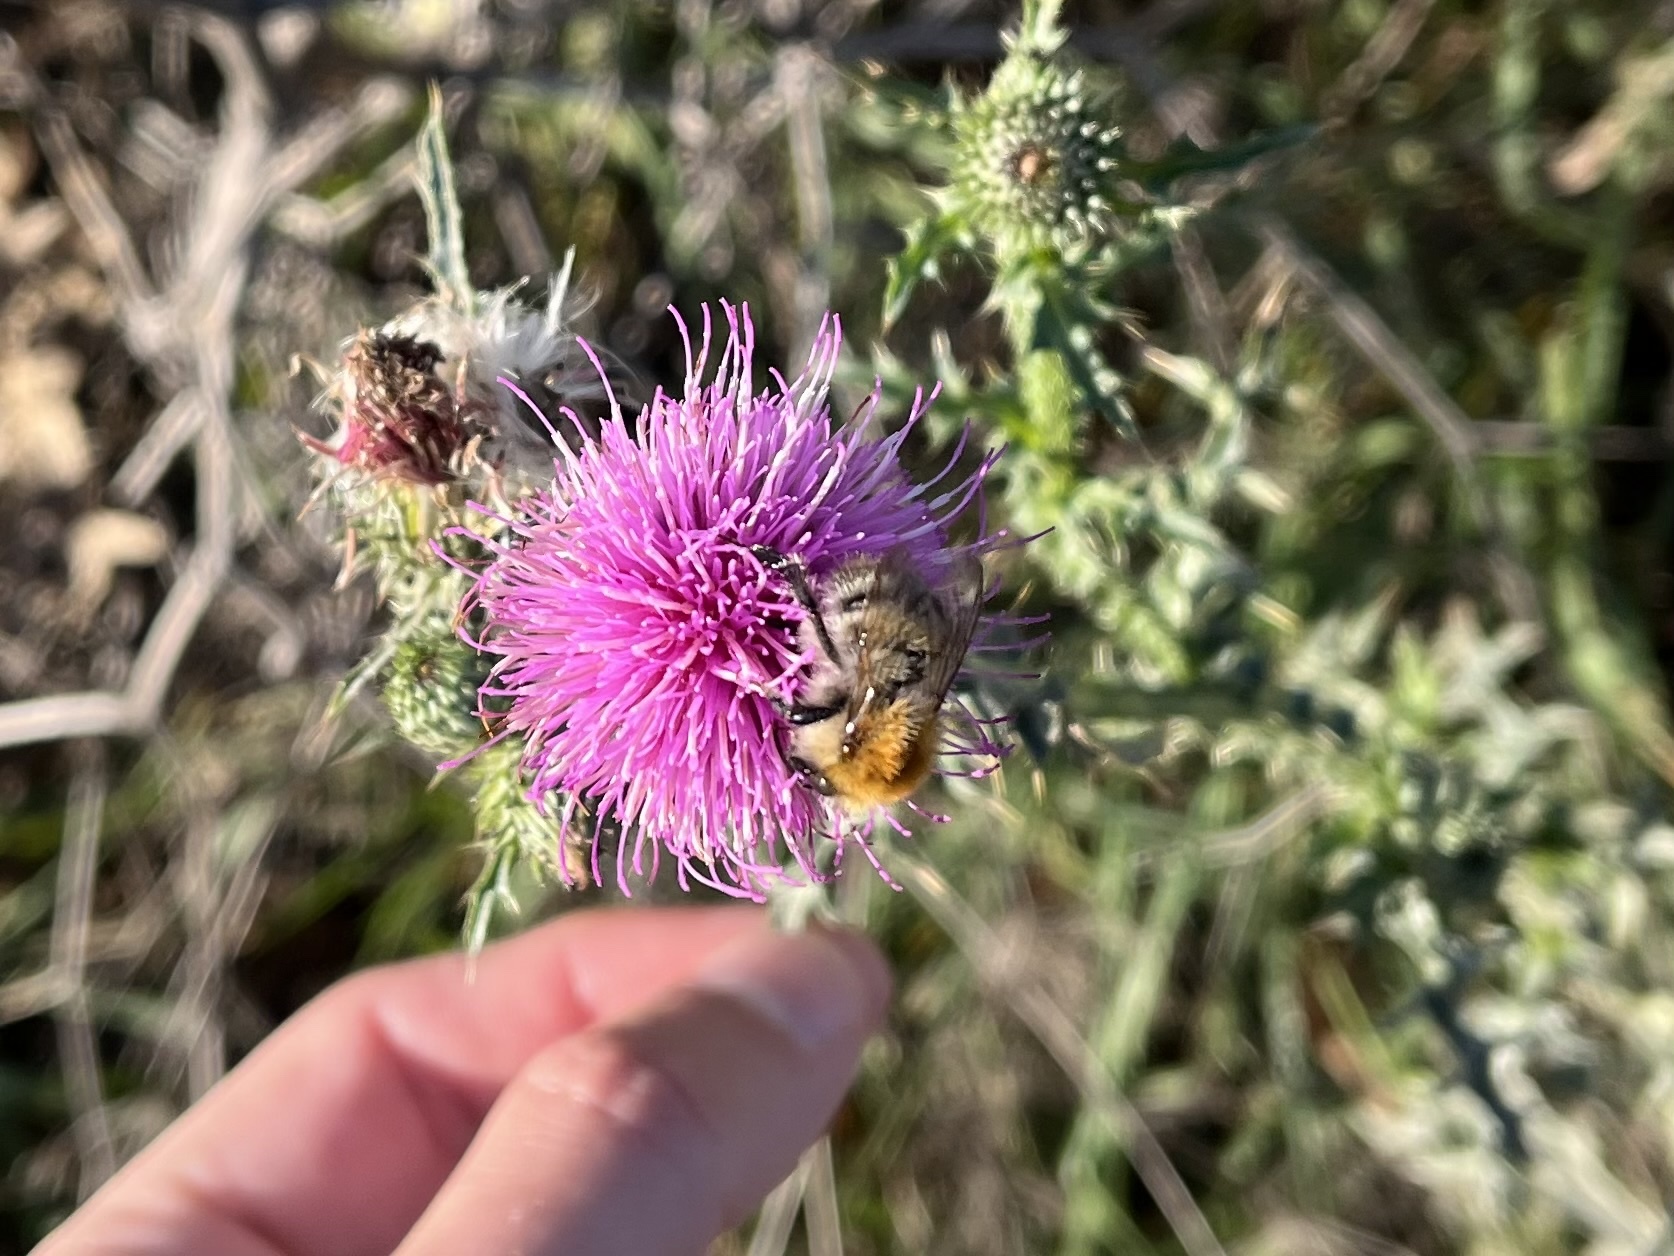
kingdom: Animalia
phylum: Arthropoda
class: Insecta
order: Hymenoptera
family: Apidae
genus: Bombus
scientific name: Bombus pascuorum
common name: Common carder bee
